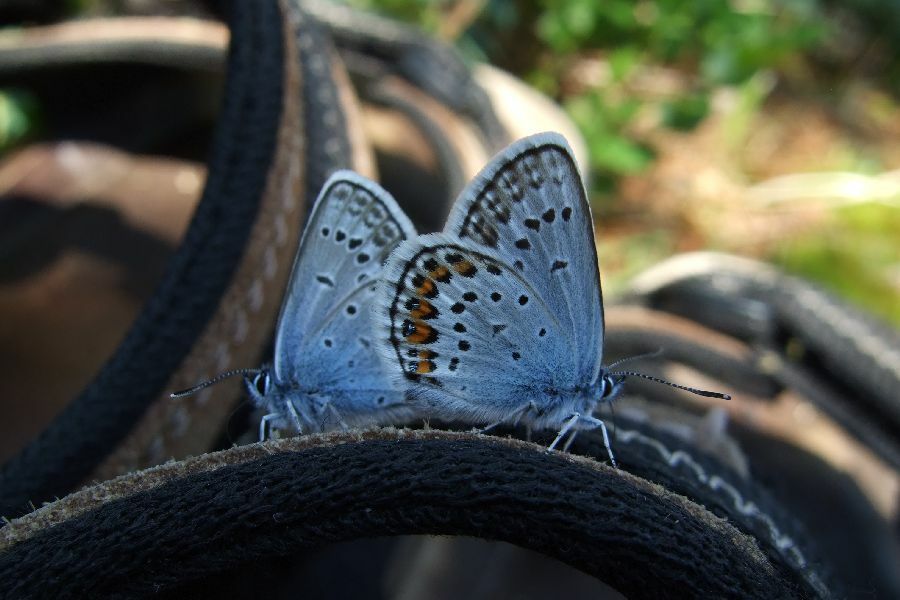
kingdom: Animalia
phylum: Arthropoda
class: Insecta
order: Lepidoptera
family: Lycaenidae
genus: Plebejus
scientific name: Plebejus argus
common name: Silver-studded blue
